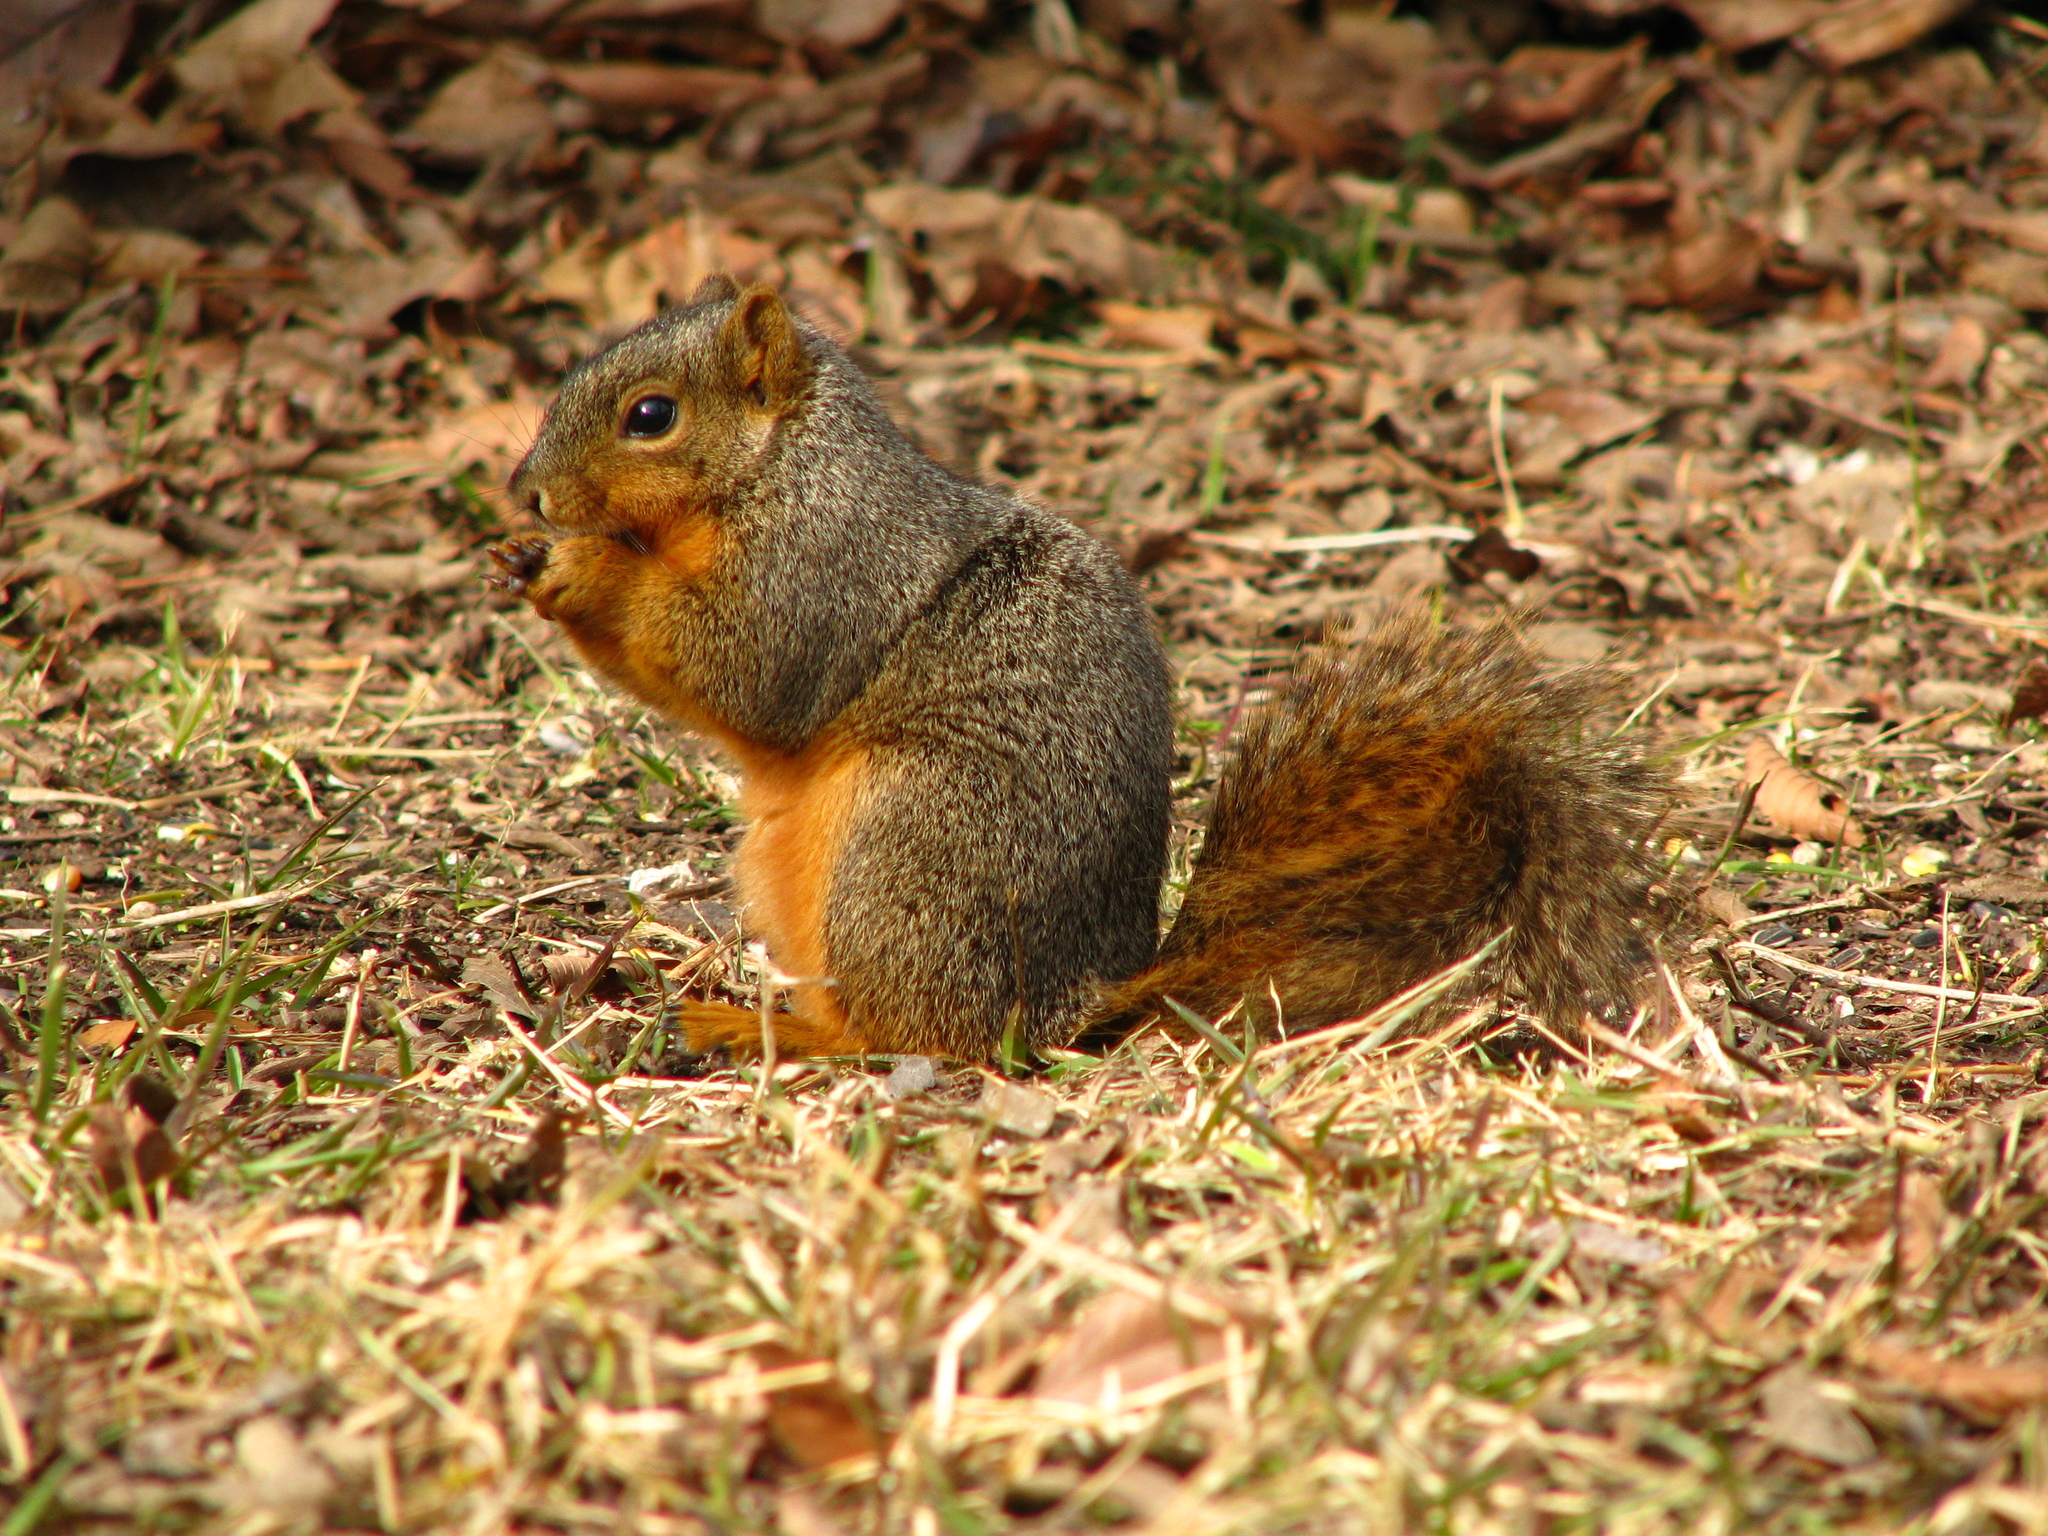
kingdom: Animalia
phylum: Chordata
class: Mammalia
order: Rodentia
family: Sciuridae
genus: Sciurus
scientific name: Sciurus niger
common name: Fox squirrel
